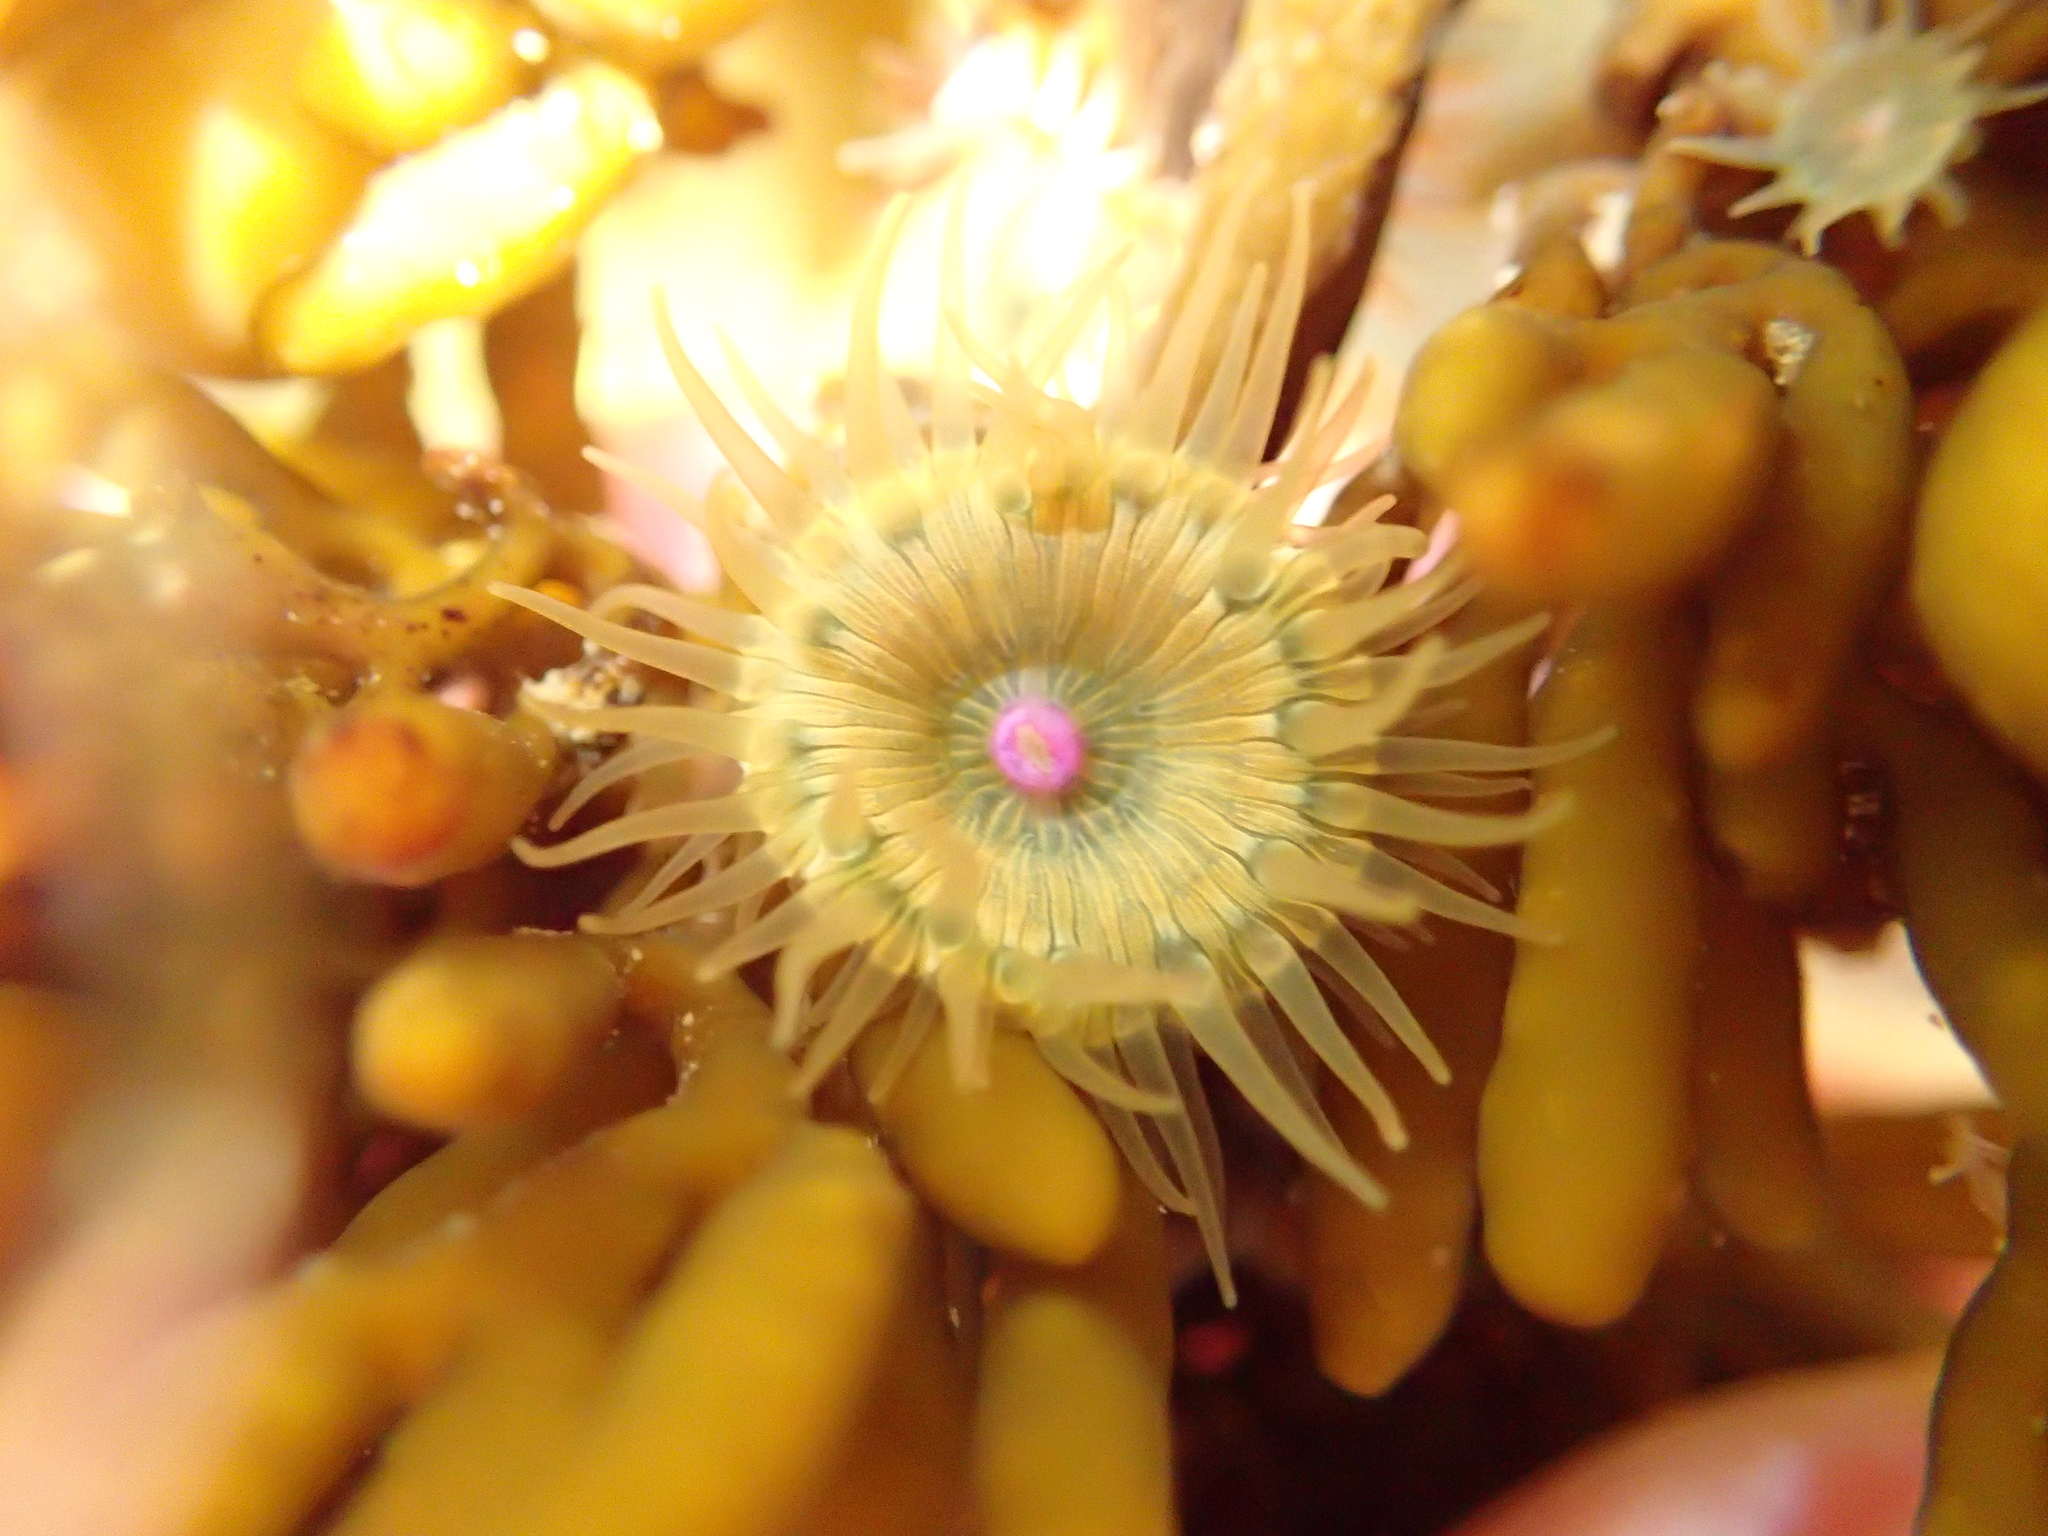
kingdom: Animalia
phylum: Cnidaria
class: Anthozoa
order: Actiniaria
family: Hormathiidae
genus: Handactis
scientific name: Handactis nutrix
